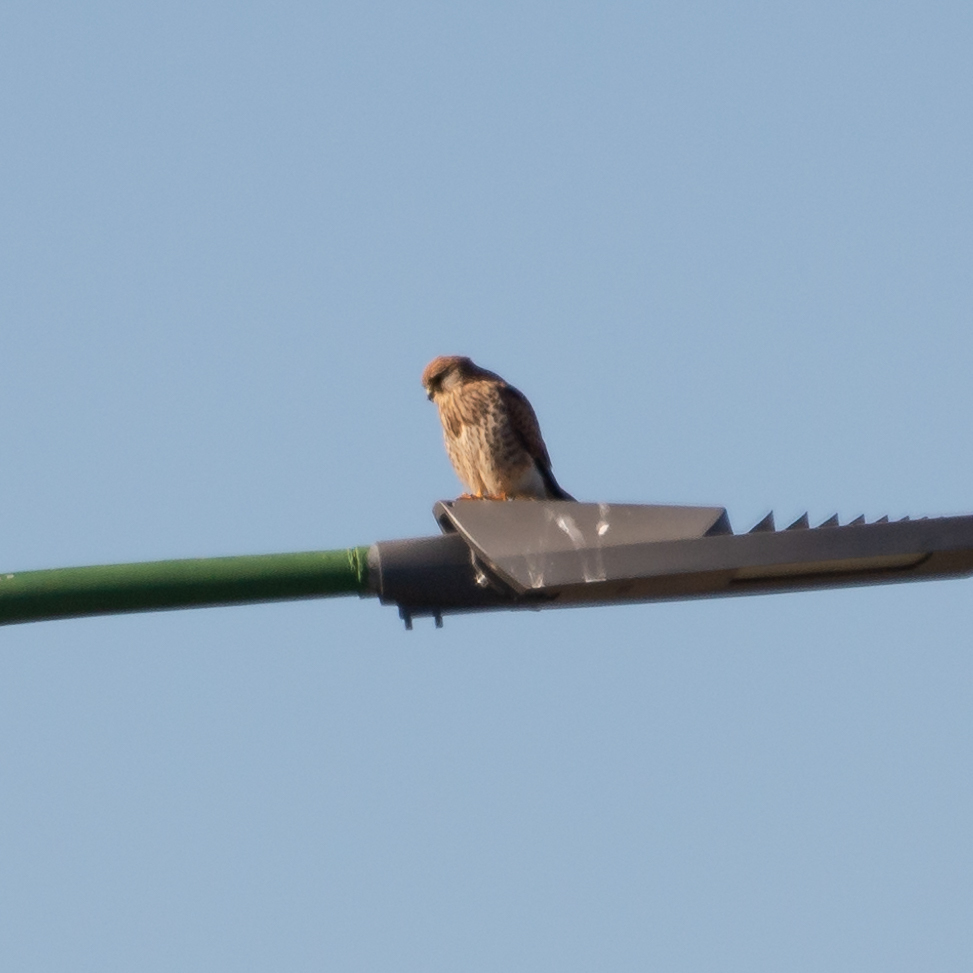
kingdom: Animalia
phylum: Chordata
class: Aves
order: Falconiformes
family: Falconidae
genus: Falco
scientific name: Falco tinnunculus
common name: Common kestrel
